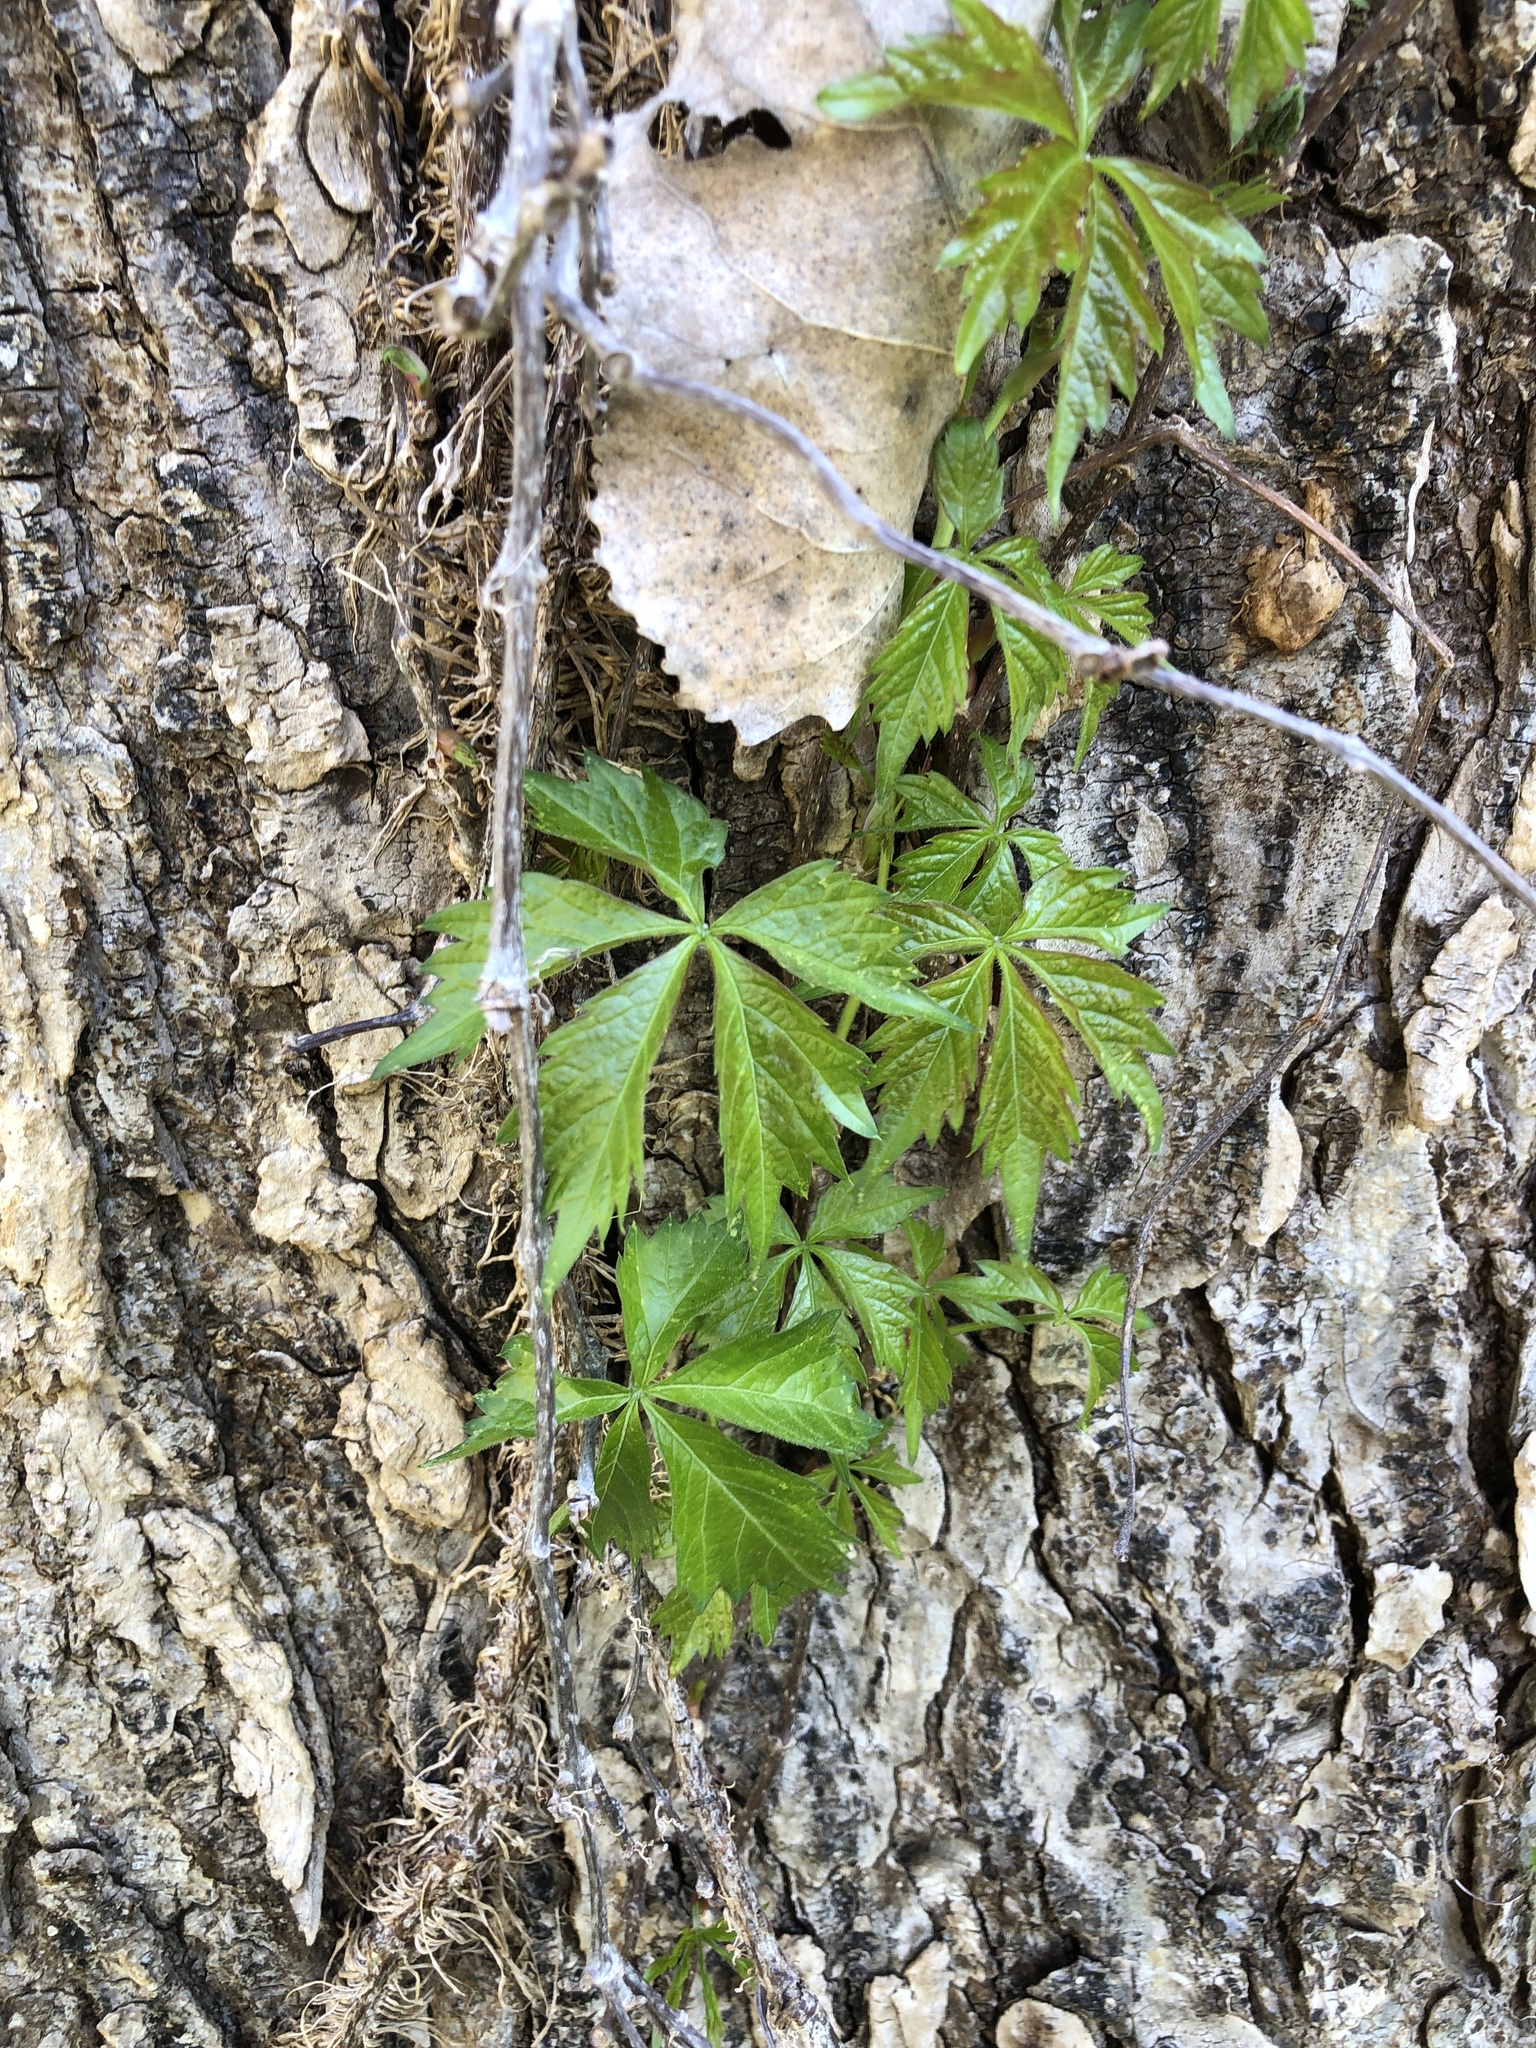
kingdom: Plantae
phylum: Tracheophyta
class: Magnoliopsida
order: Vitales
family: Vitaceae
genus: Parthenocissus
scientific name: Parthenocissus quinquefolia
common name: Virginia-creeper
